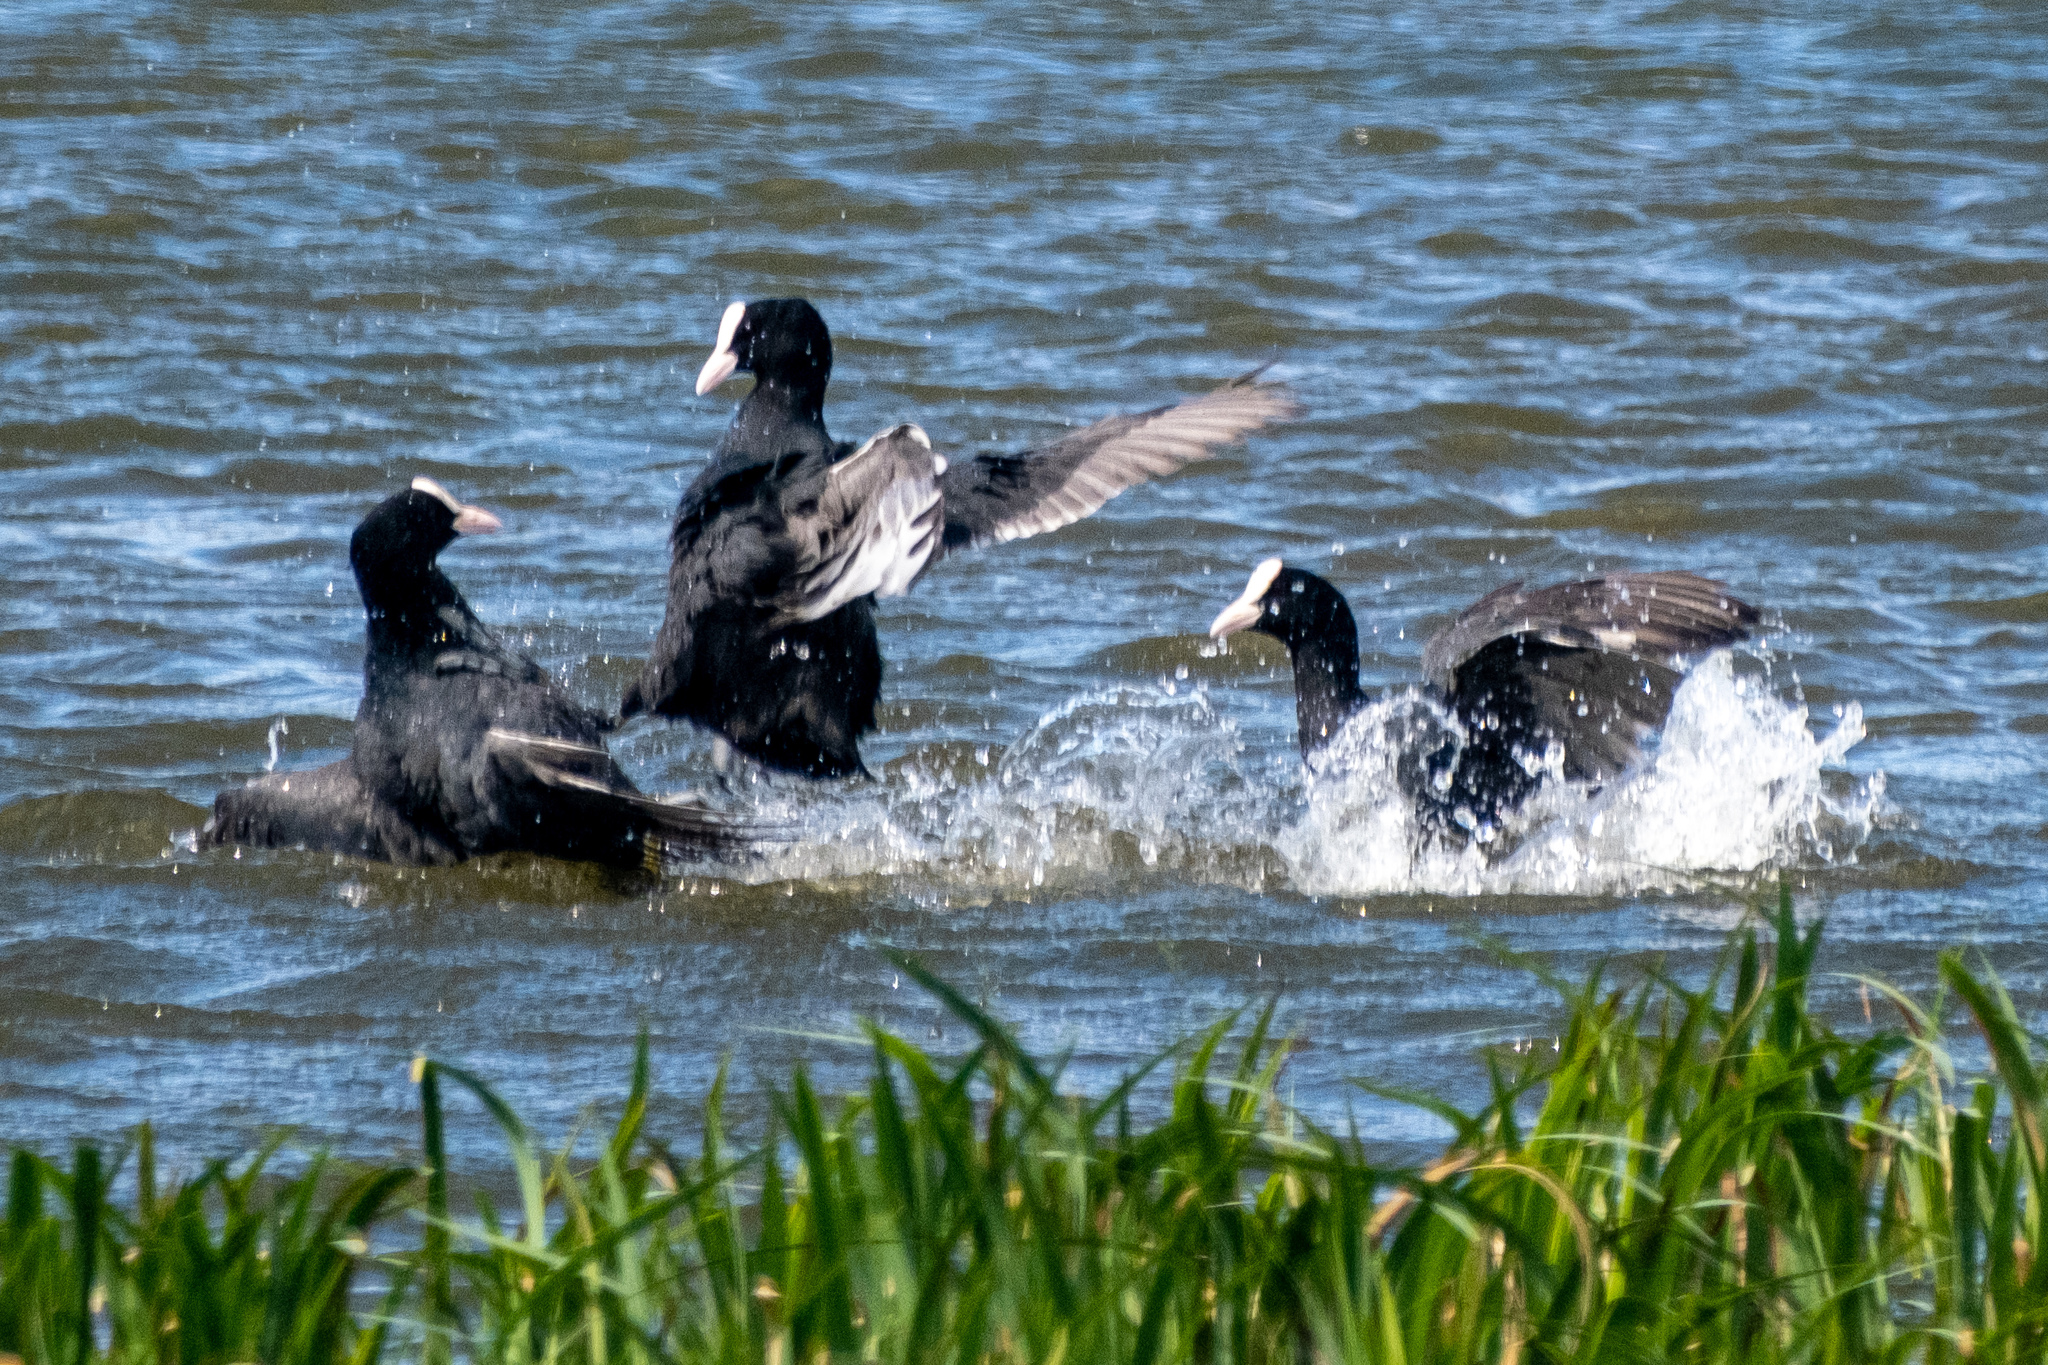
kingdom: Animalia
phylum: Chordata
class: Aves
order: Gruiformes
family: Rallidae
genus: Fulica
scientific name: Fulica atra
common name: Eurasian coot
